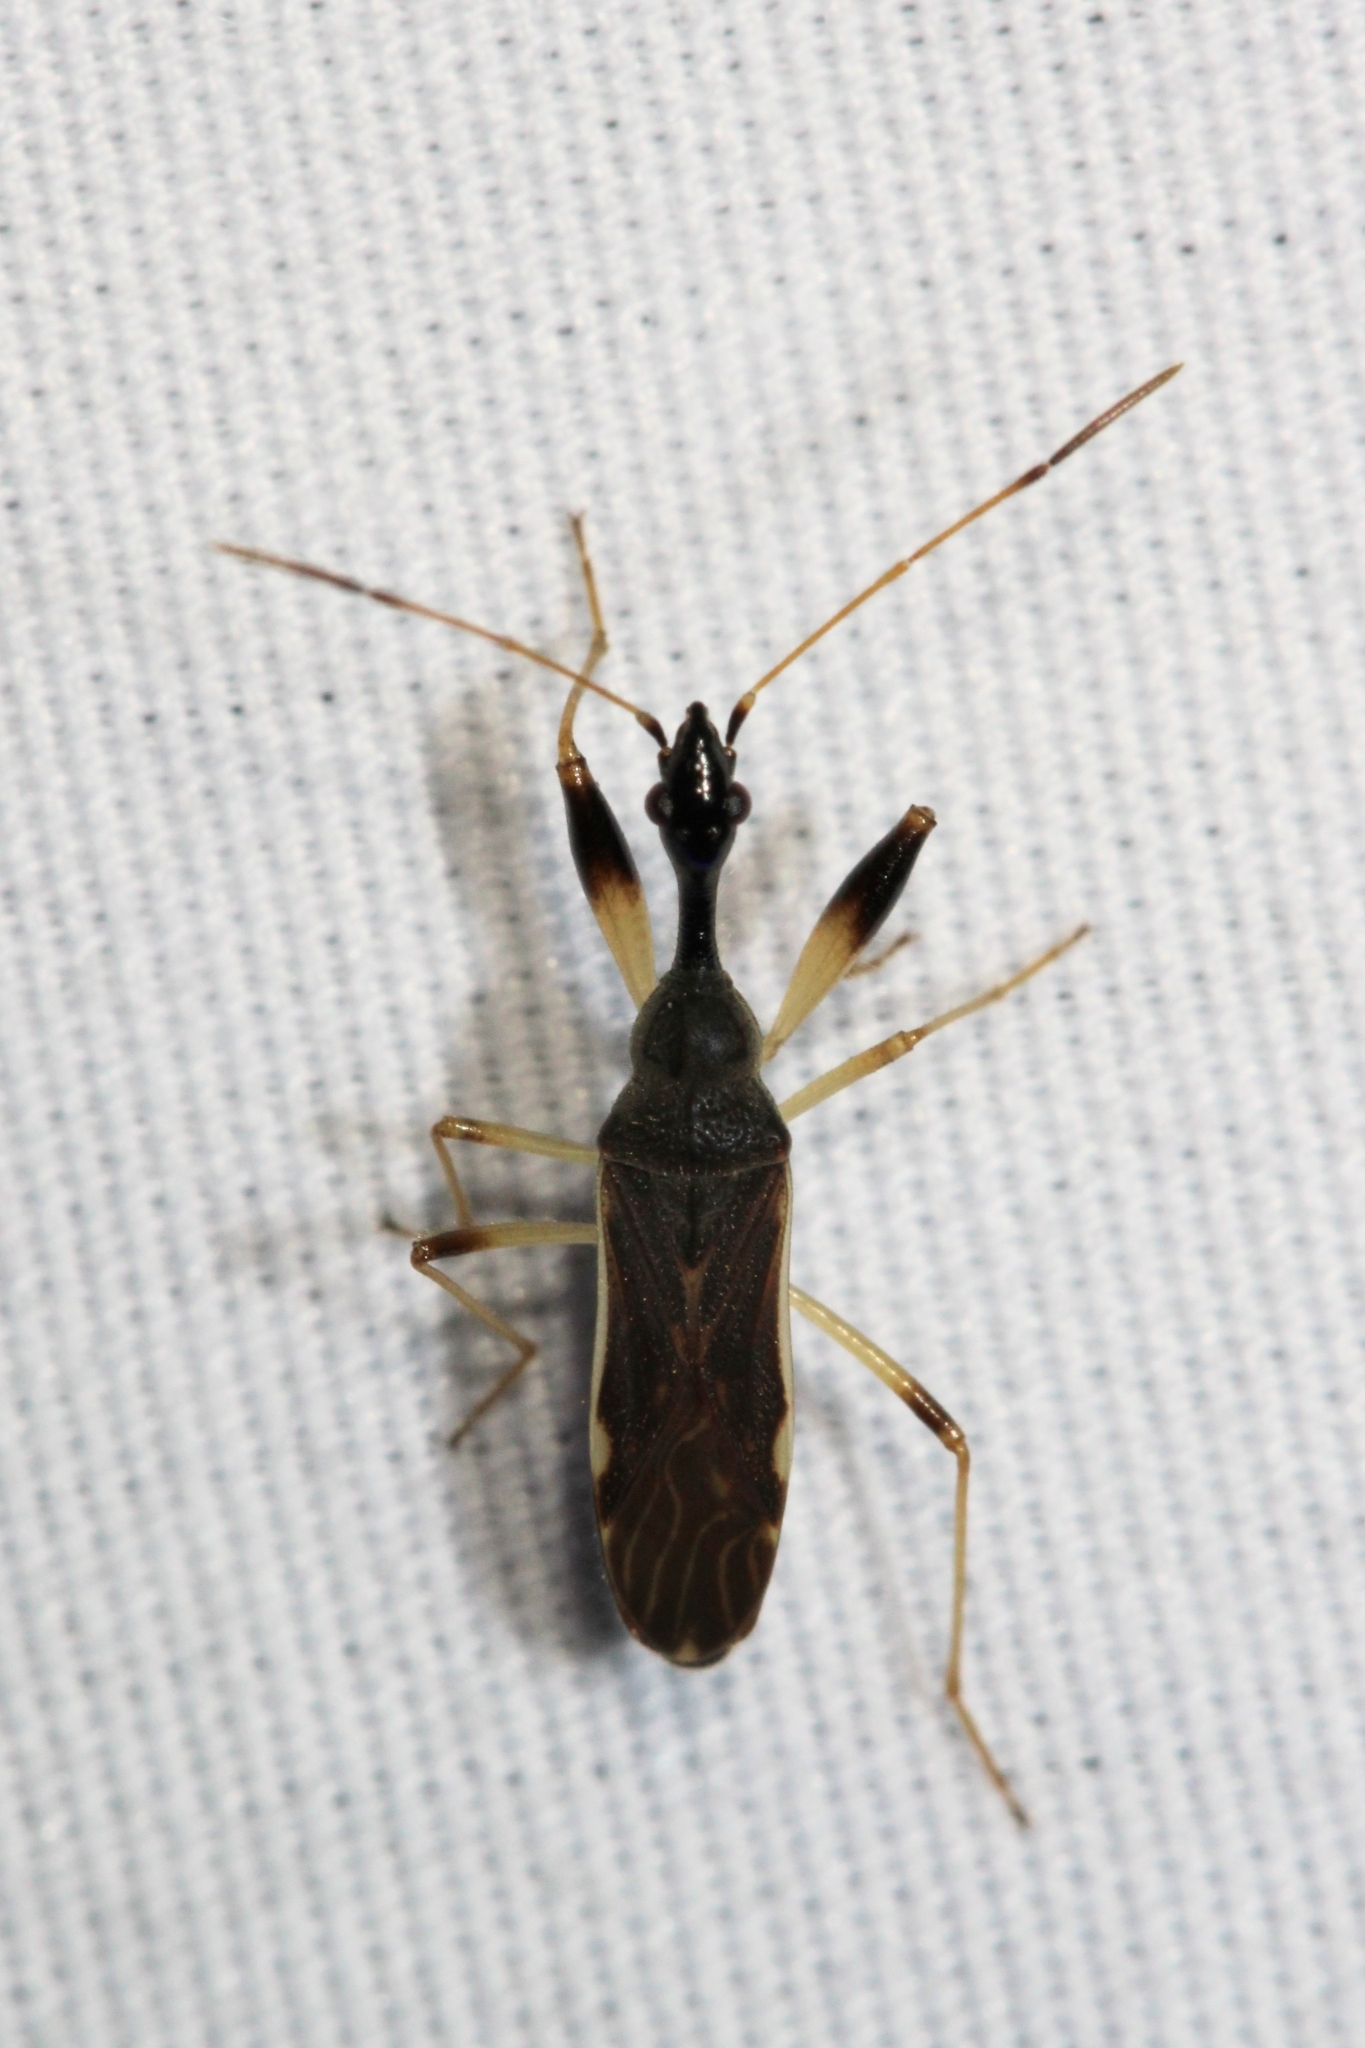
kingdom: Animalia
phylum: Arthropoda
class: Insecta
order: Hemiptera
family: Rhyparochromidae
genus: Myodocha
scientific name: Myodocha serripes
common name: Long-necked seed bug
